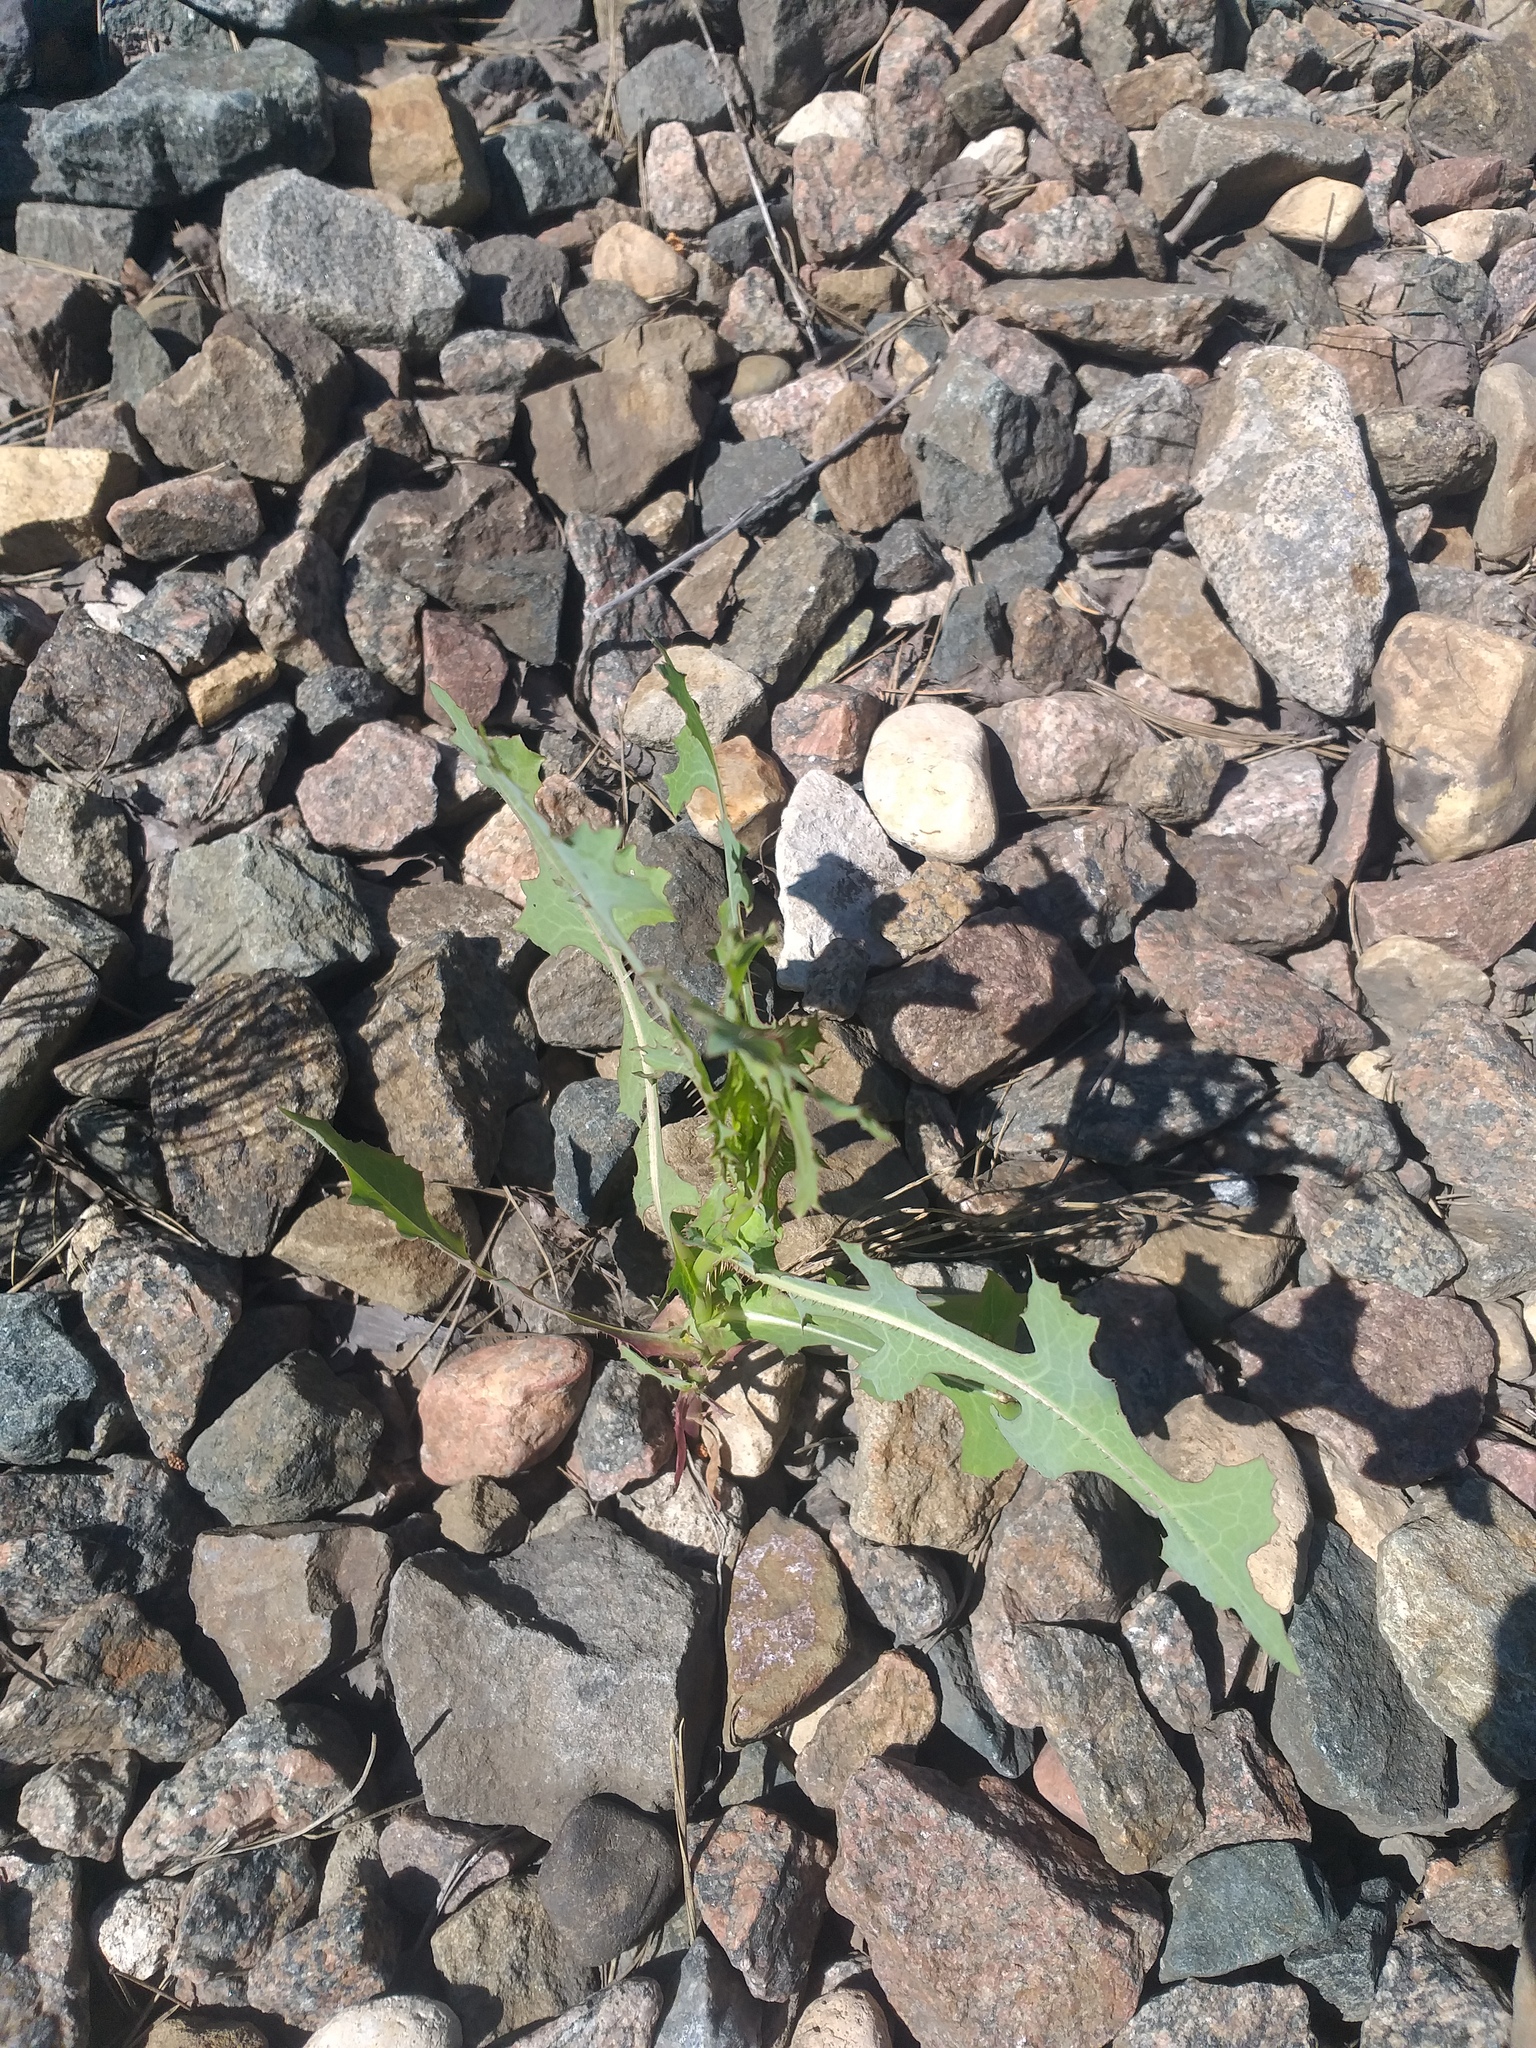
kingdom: Plantae
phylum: Tracheophyta
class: Magnoliopsida
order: Asterales
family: Asteraceae
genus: Lactuca
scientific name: Lactuca serriola
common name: Prickly lettuce
